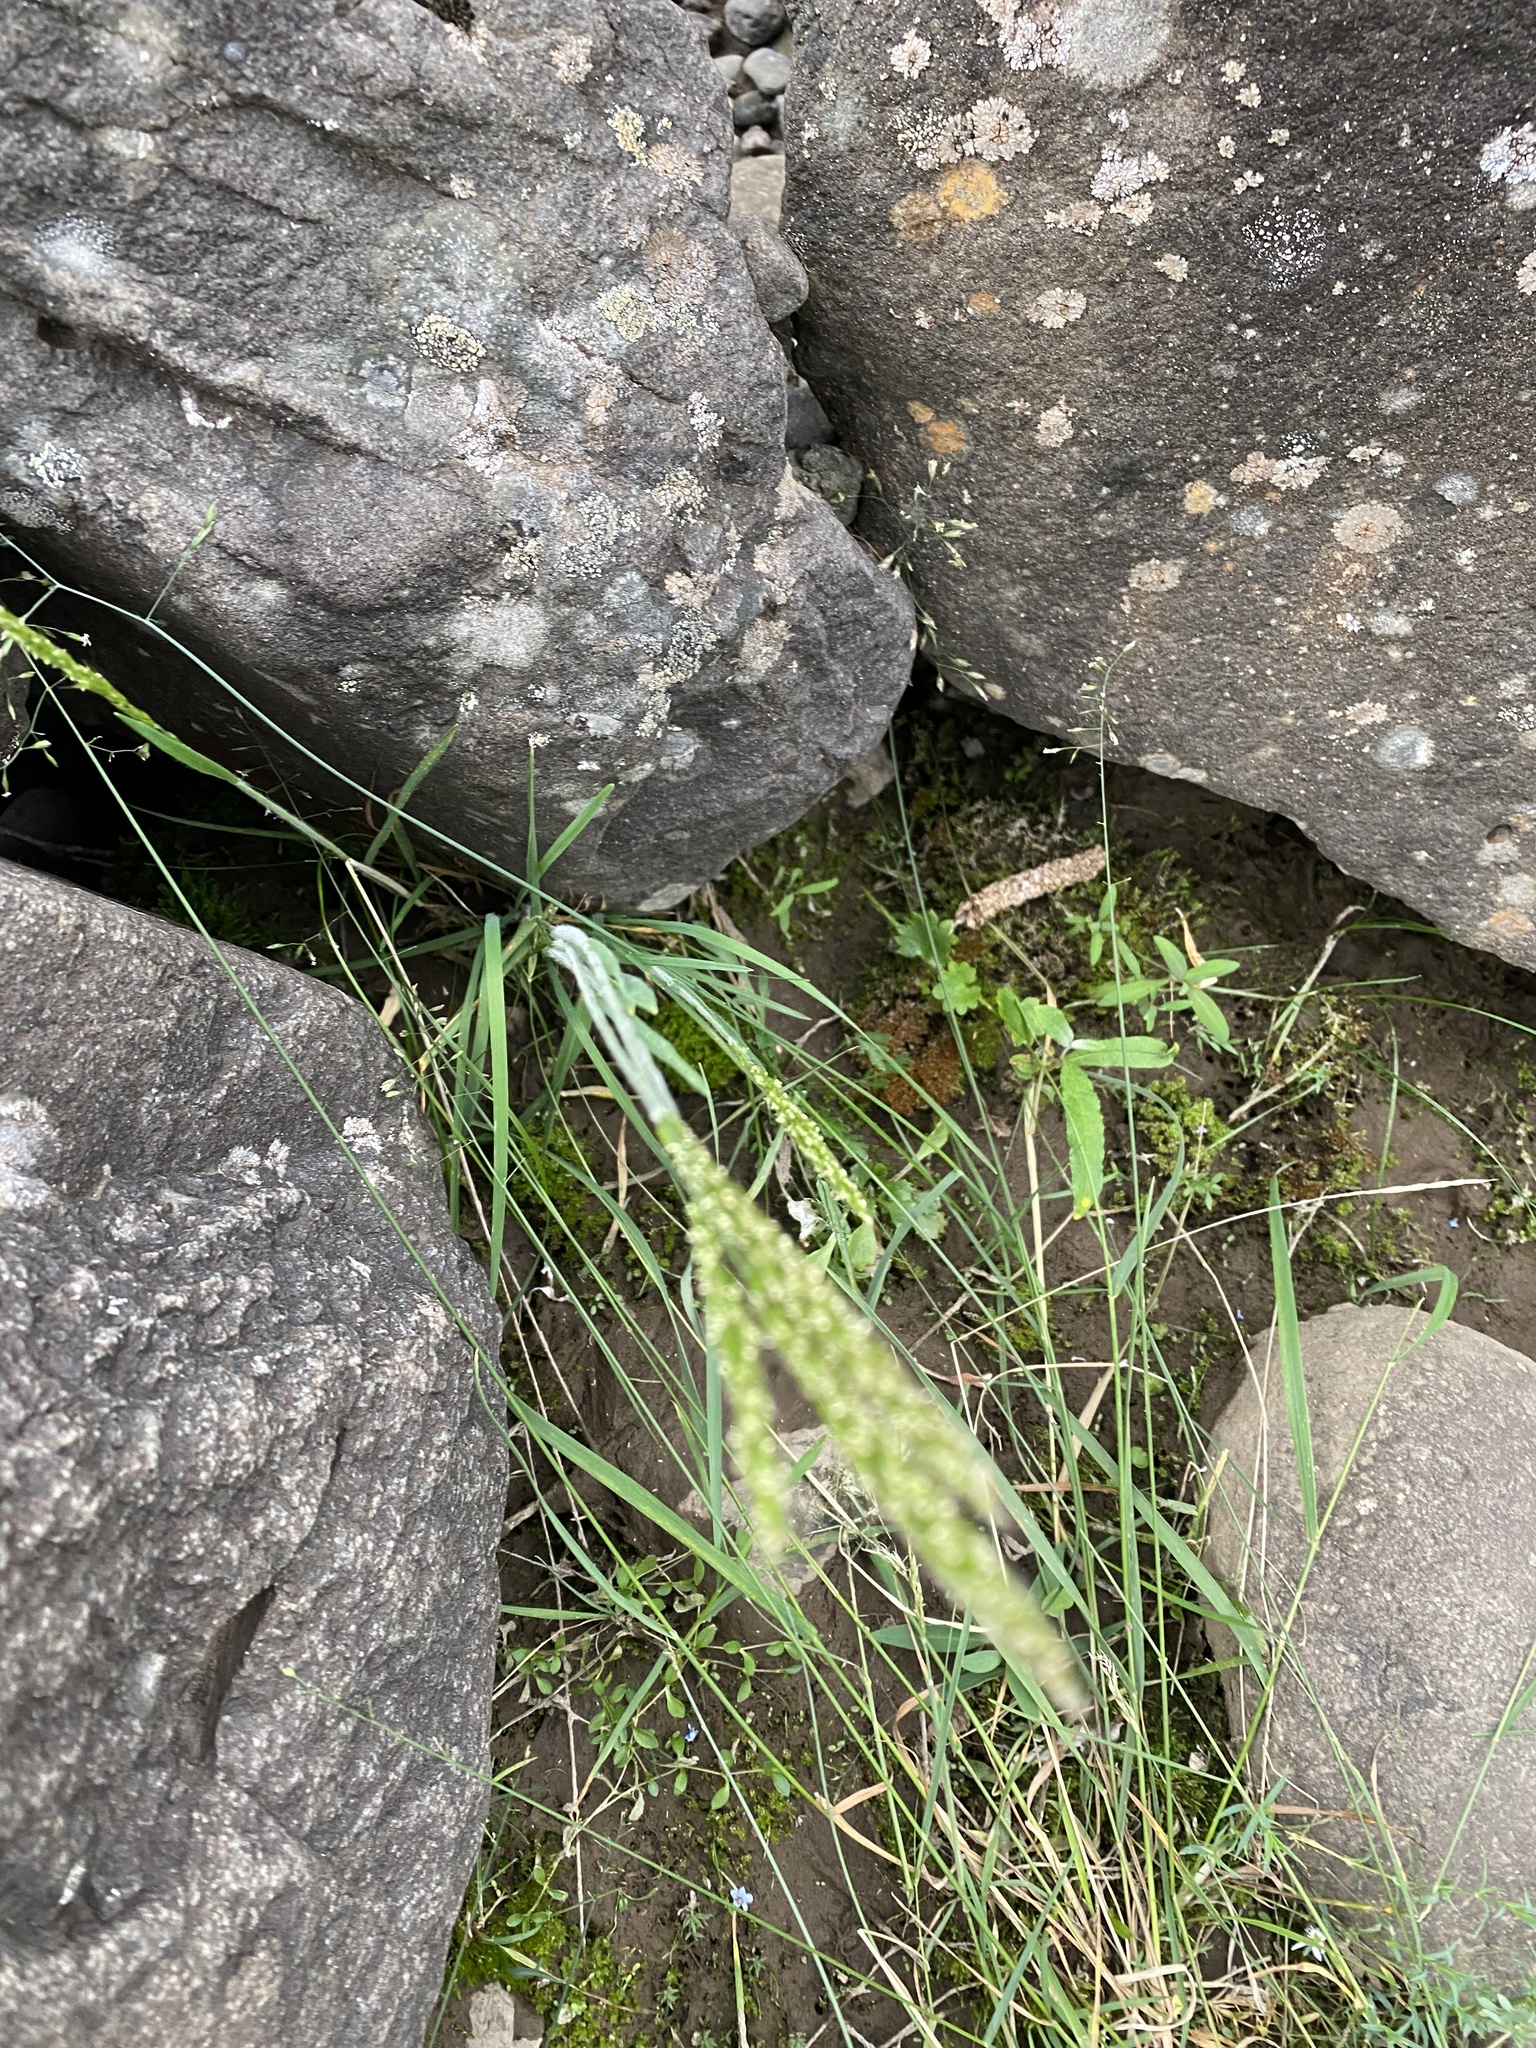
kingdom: Plantae
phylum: Tracheophyta
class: Liliopsida
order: Poales
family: Poaceae
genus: Koeleria
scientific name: Koeleria spicata
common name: Mountain trisetum
